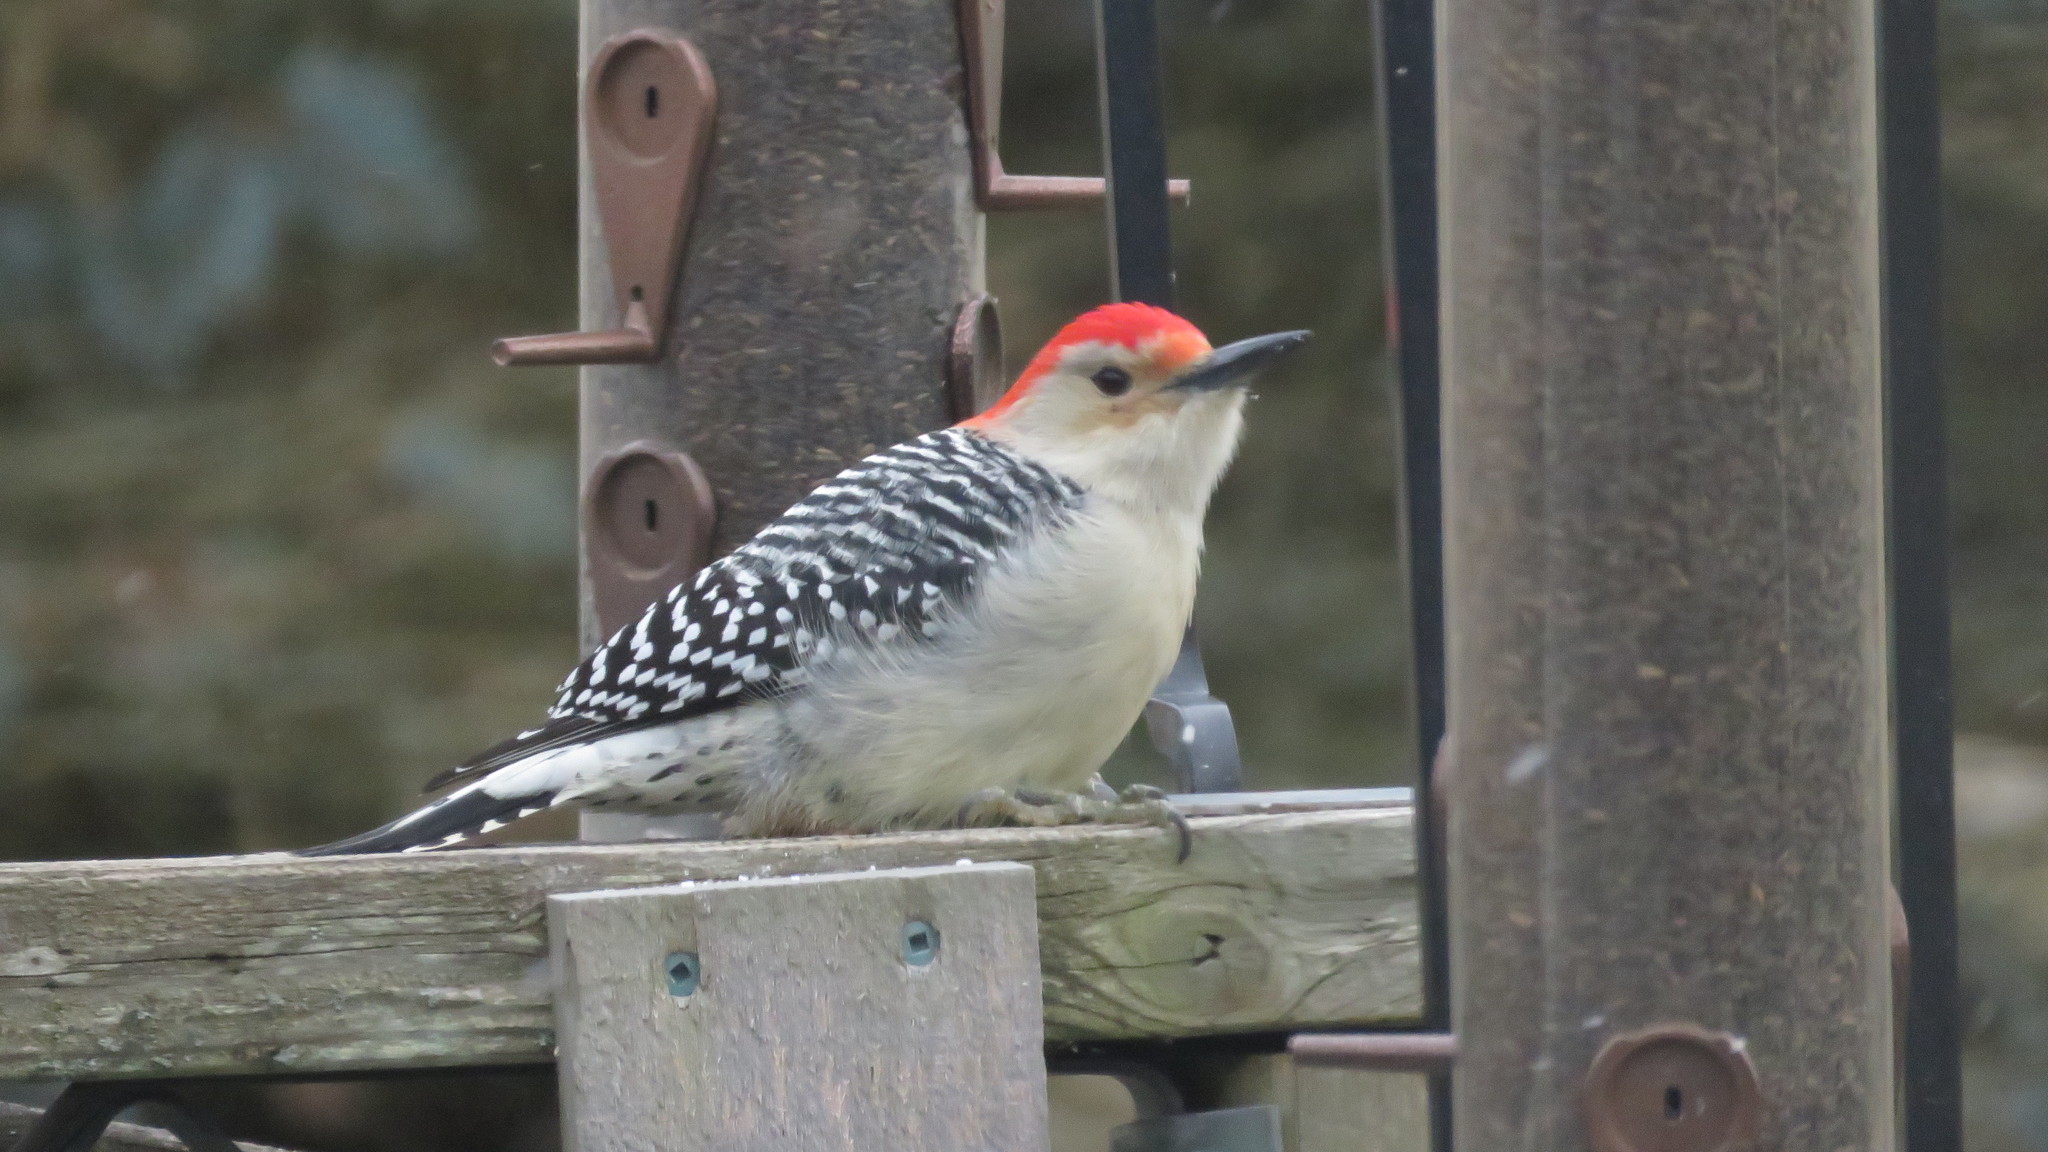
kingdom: Animalia
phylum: Chordata
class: Aves
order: Piciformes
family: Picidae
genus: Melanerpes
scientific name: Melanerpes carolinus
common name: Red-bellied woodpecker
